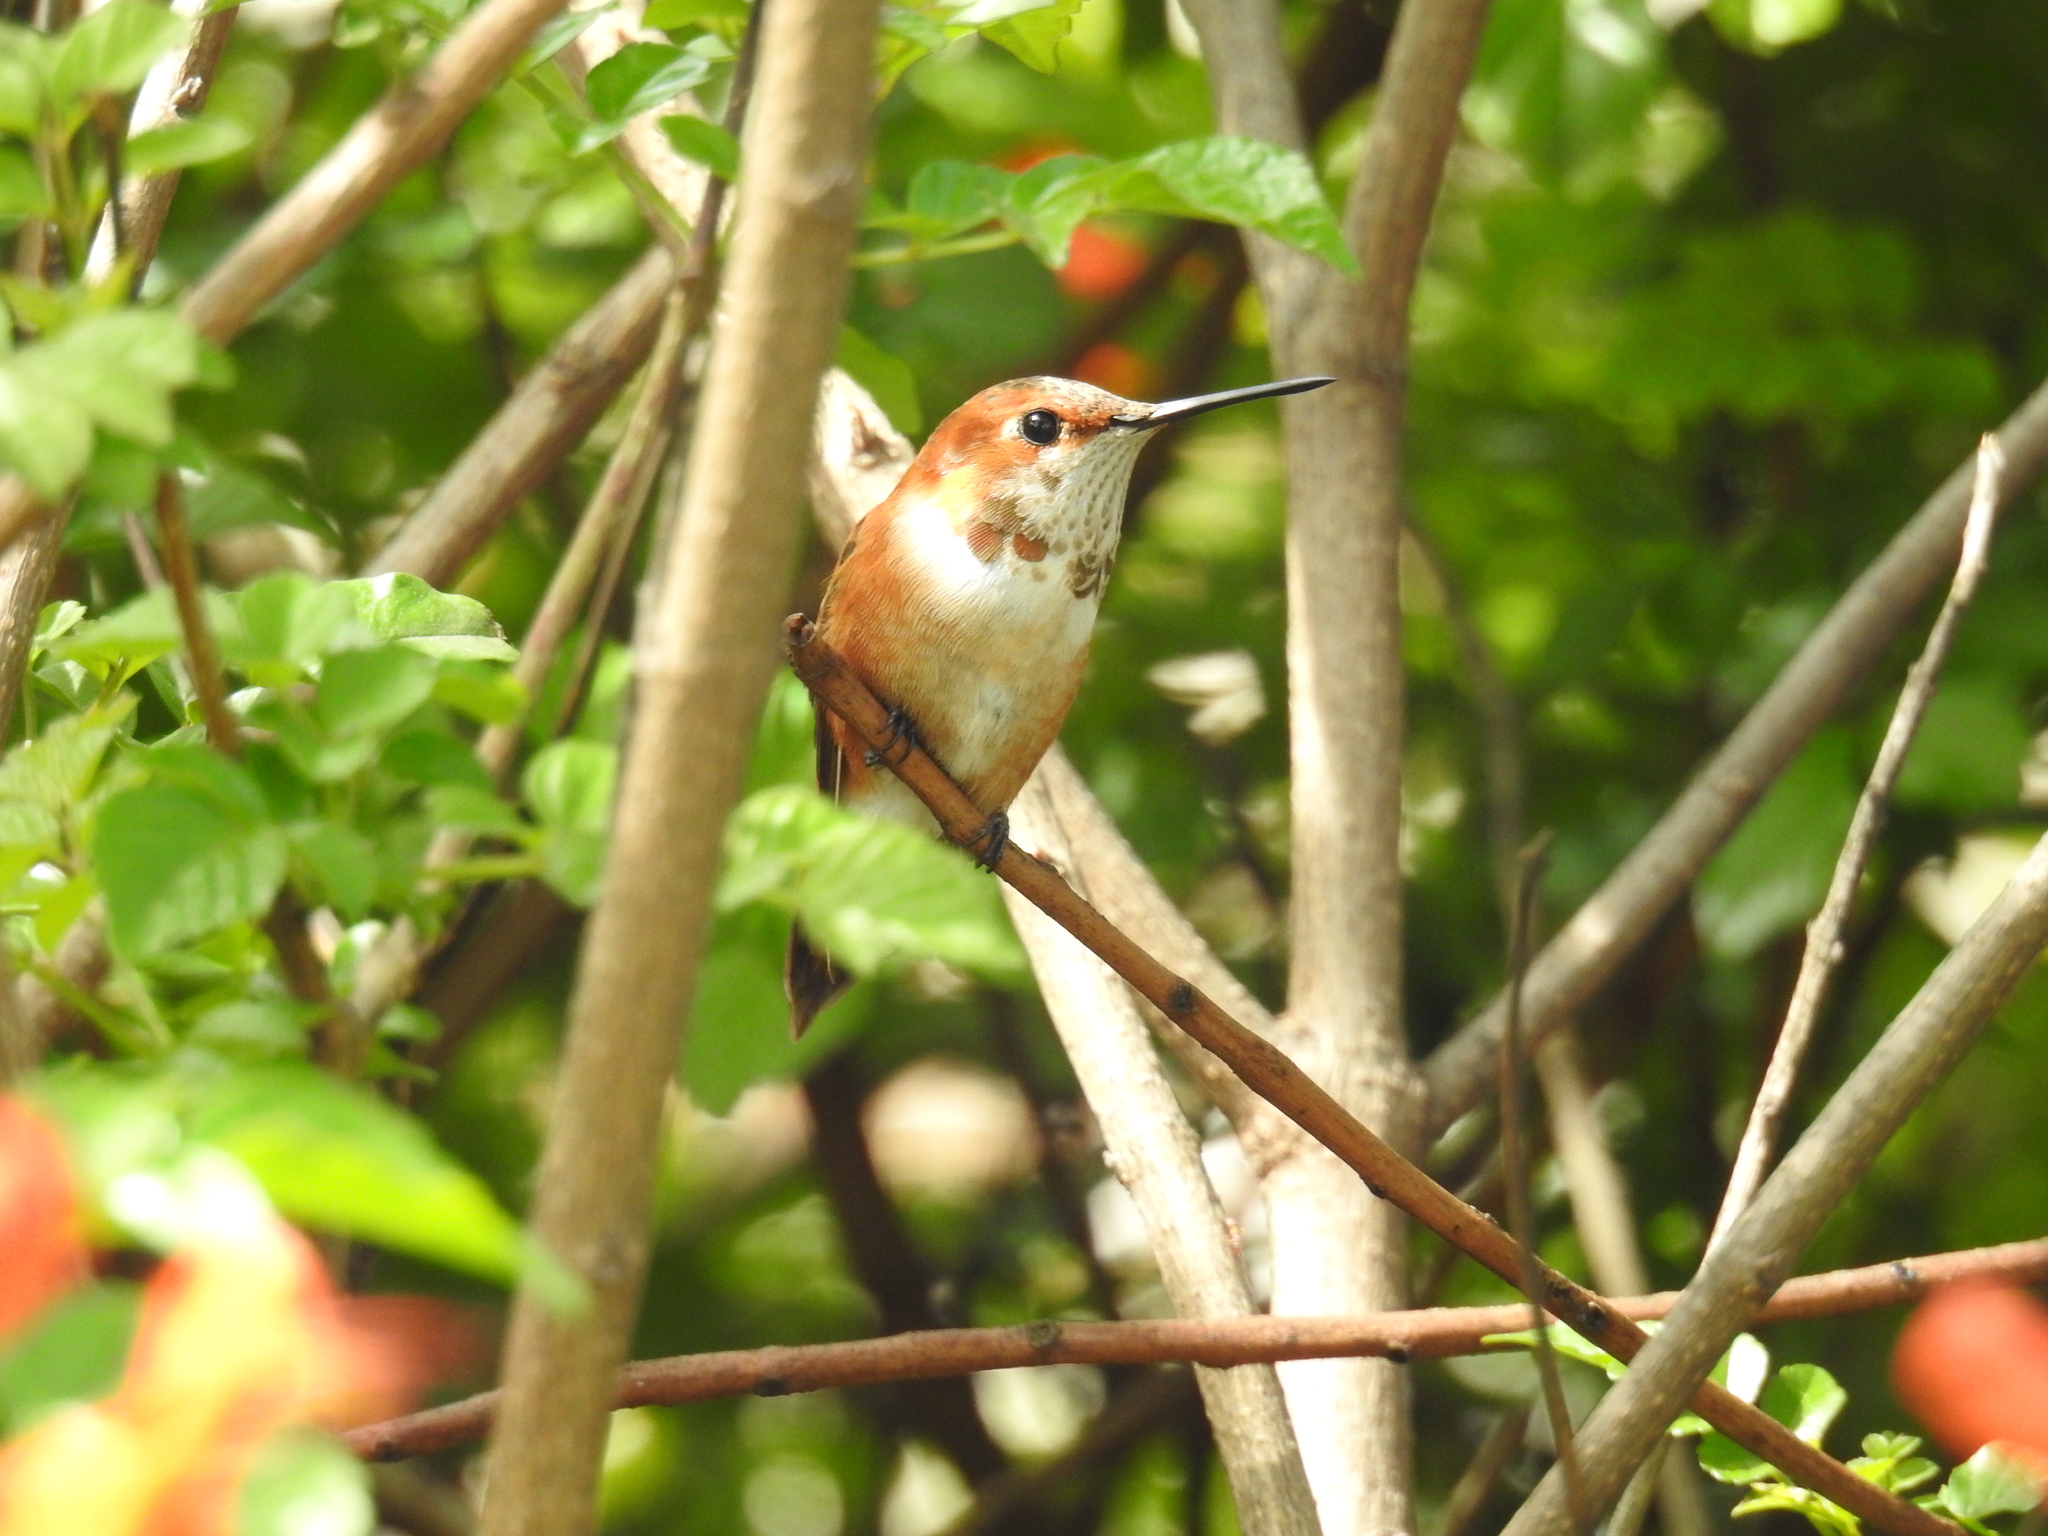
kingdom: Animalia
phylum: Chordata
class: Aves
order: Apodiformes
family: Trochilidae
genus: Selasphorus
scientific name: Selasphorus rufus
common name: Rufous hummingbird
